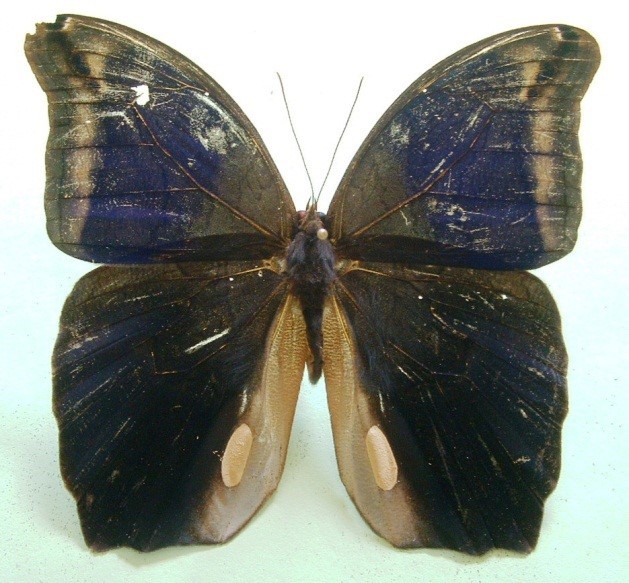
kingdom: Animalia
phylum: Arthropoda
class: Insecta
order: Lepidoptera
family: Nymphalidae
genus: Eryphanis
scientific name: Eryphanis lycomedon
